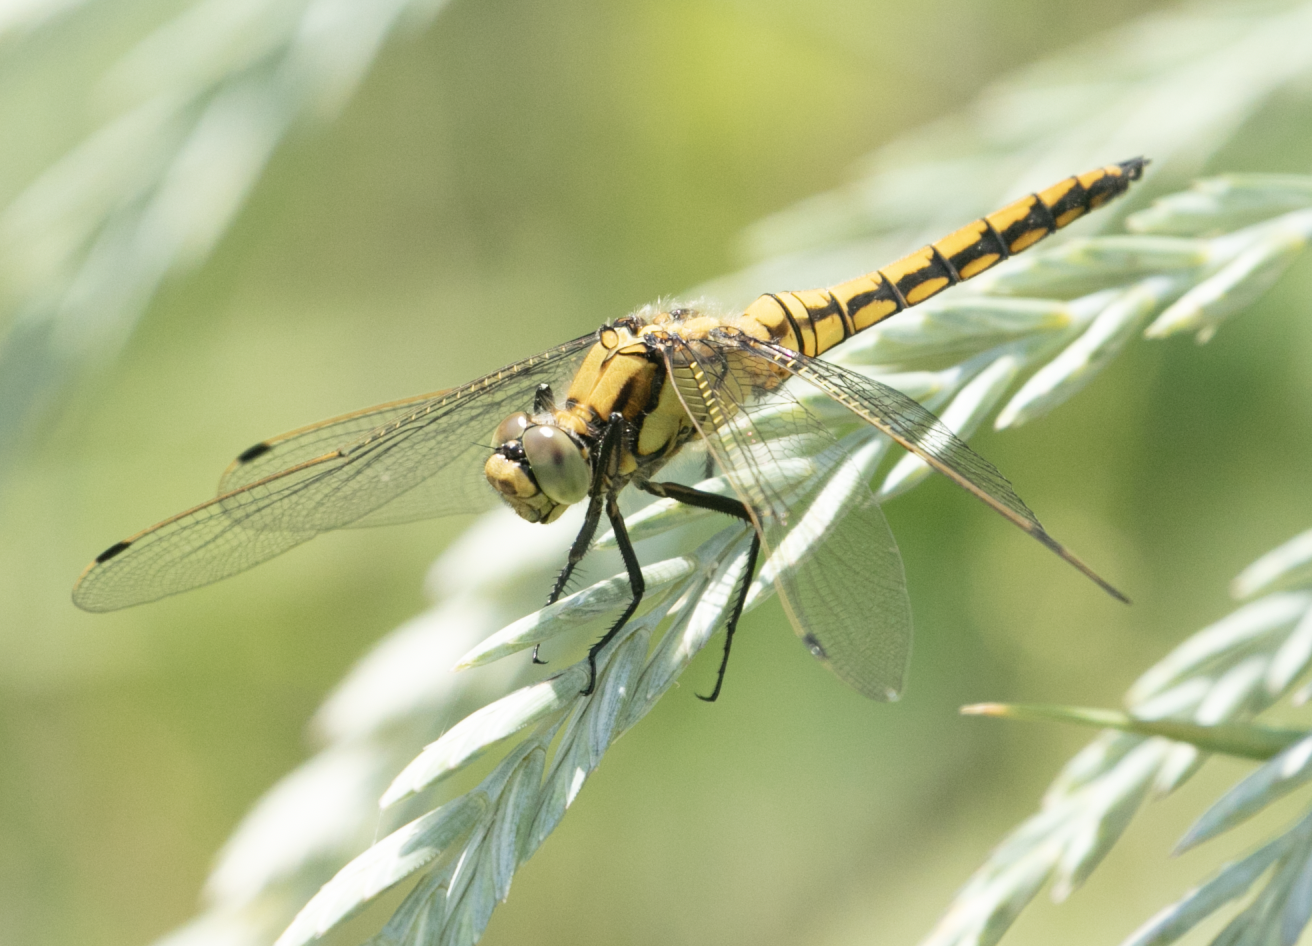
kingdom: Animalia
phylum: Arthropoda
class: Insecta
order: Odonata
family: Libellulidae
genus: Orthetrum
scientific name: Orthetrum cancellatum
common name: Black-tailed skimmer
